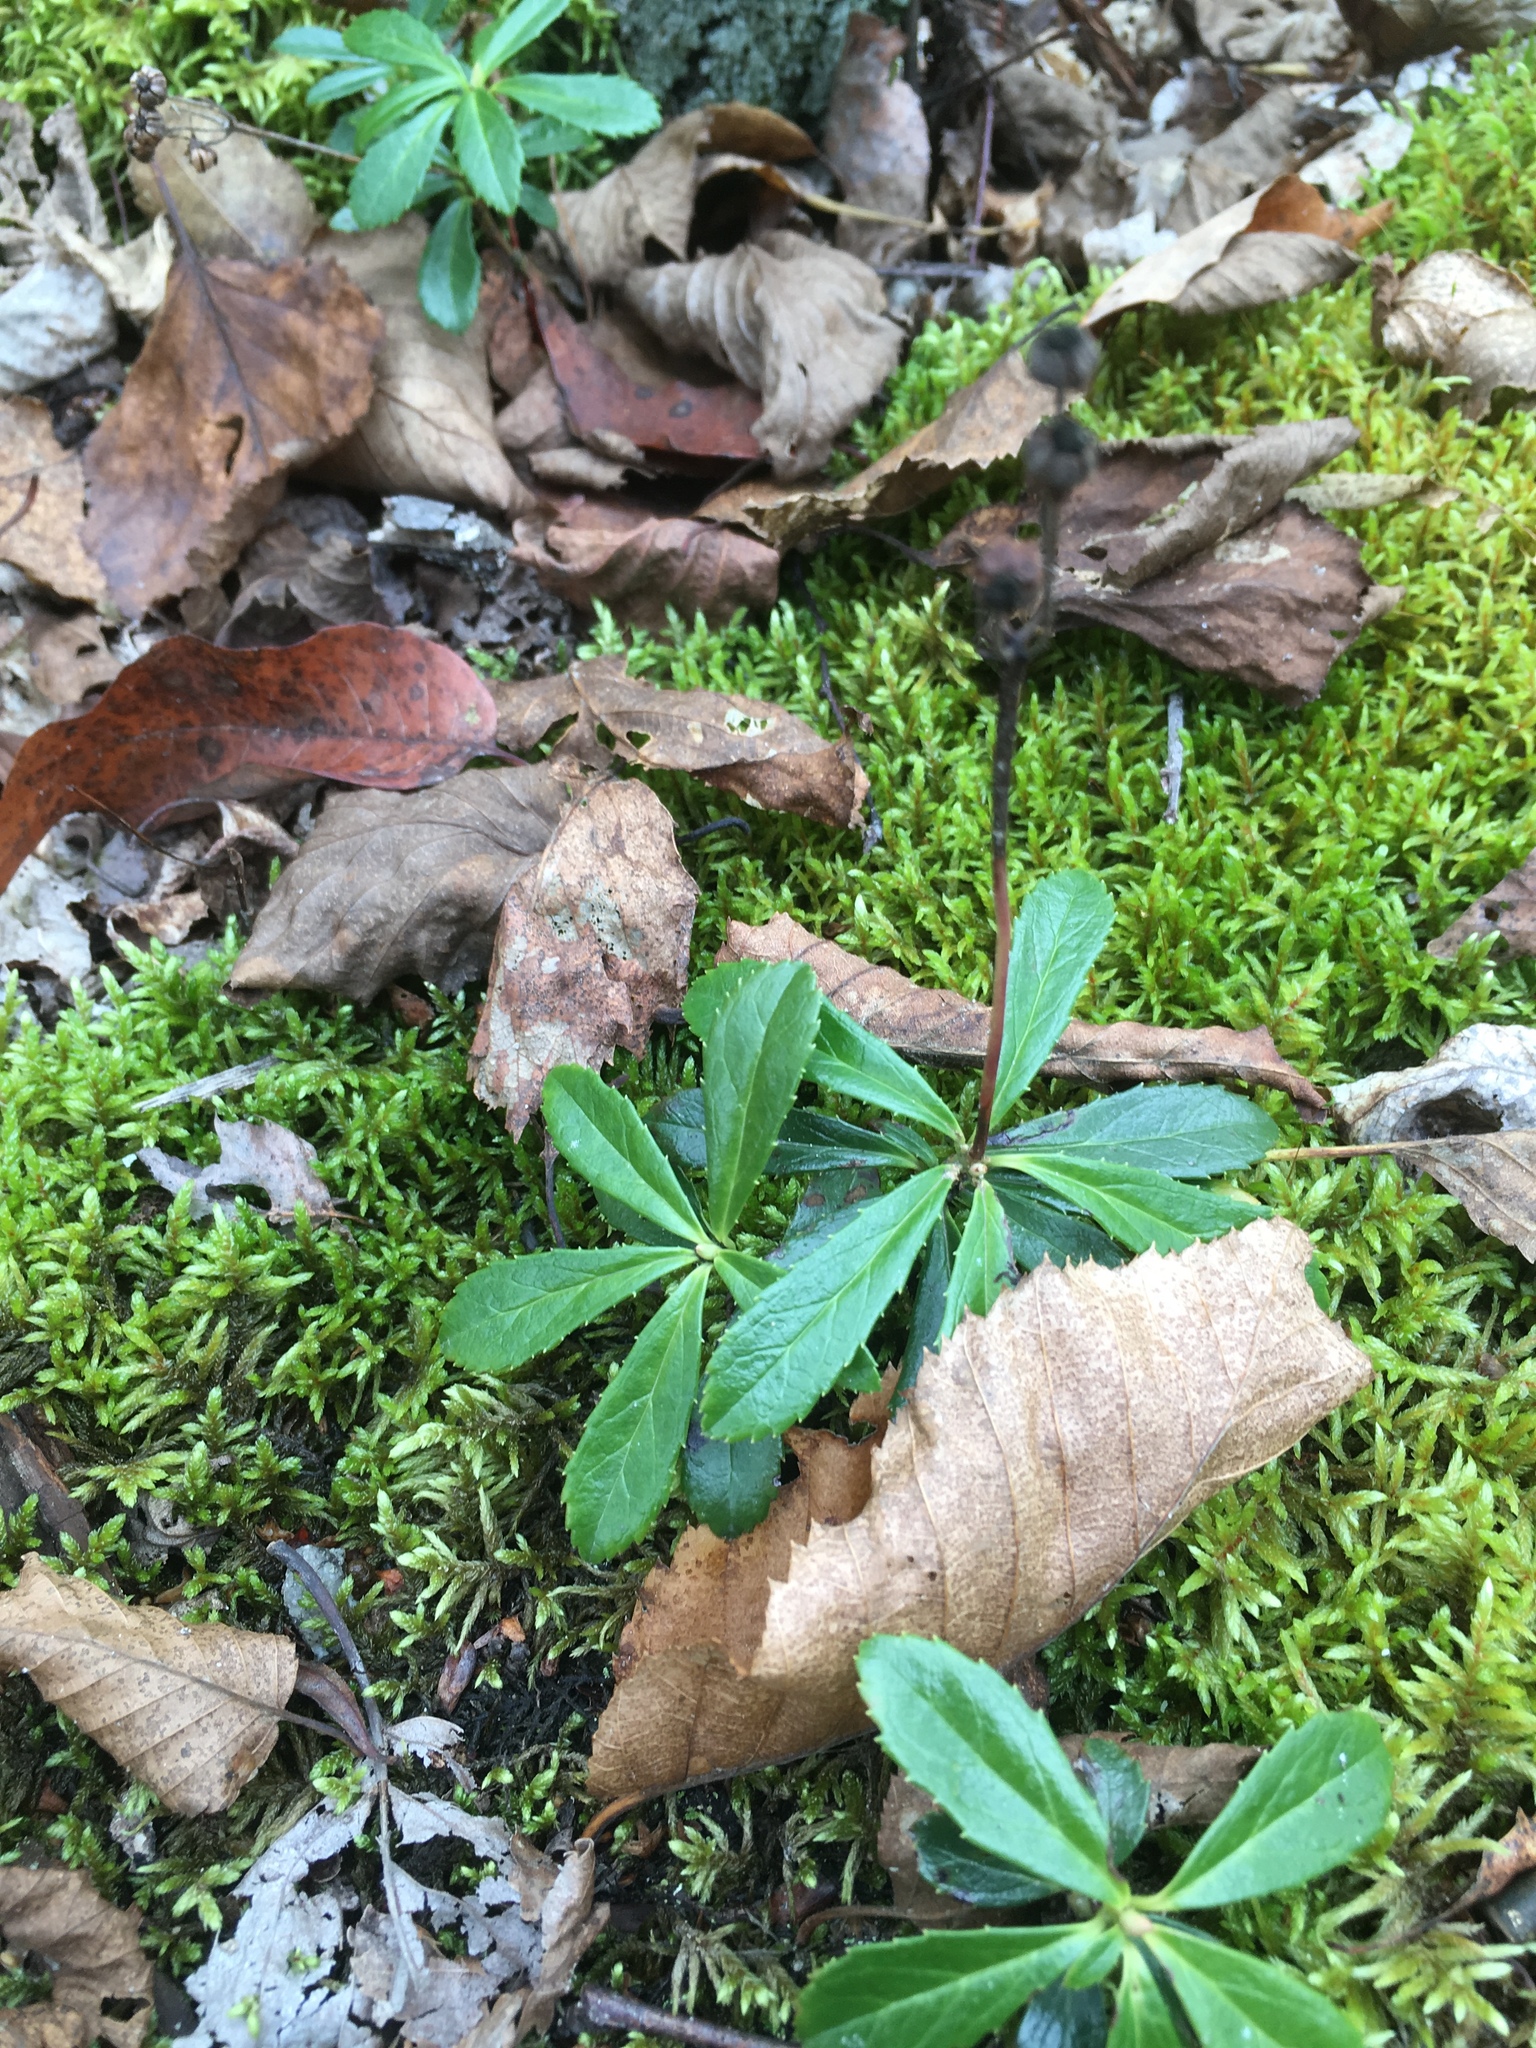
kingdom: Plantae
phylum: Tracheophyta
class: Magnoliopsida
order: Ericales
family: Ericaceae
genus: Chimaphila
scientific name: Chimaphila umbellata
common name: Pipsissewa
